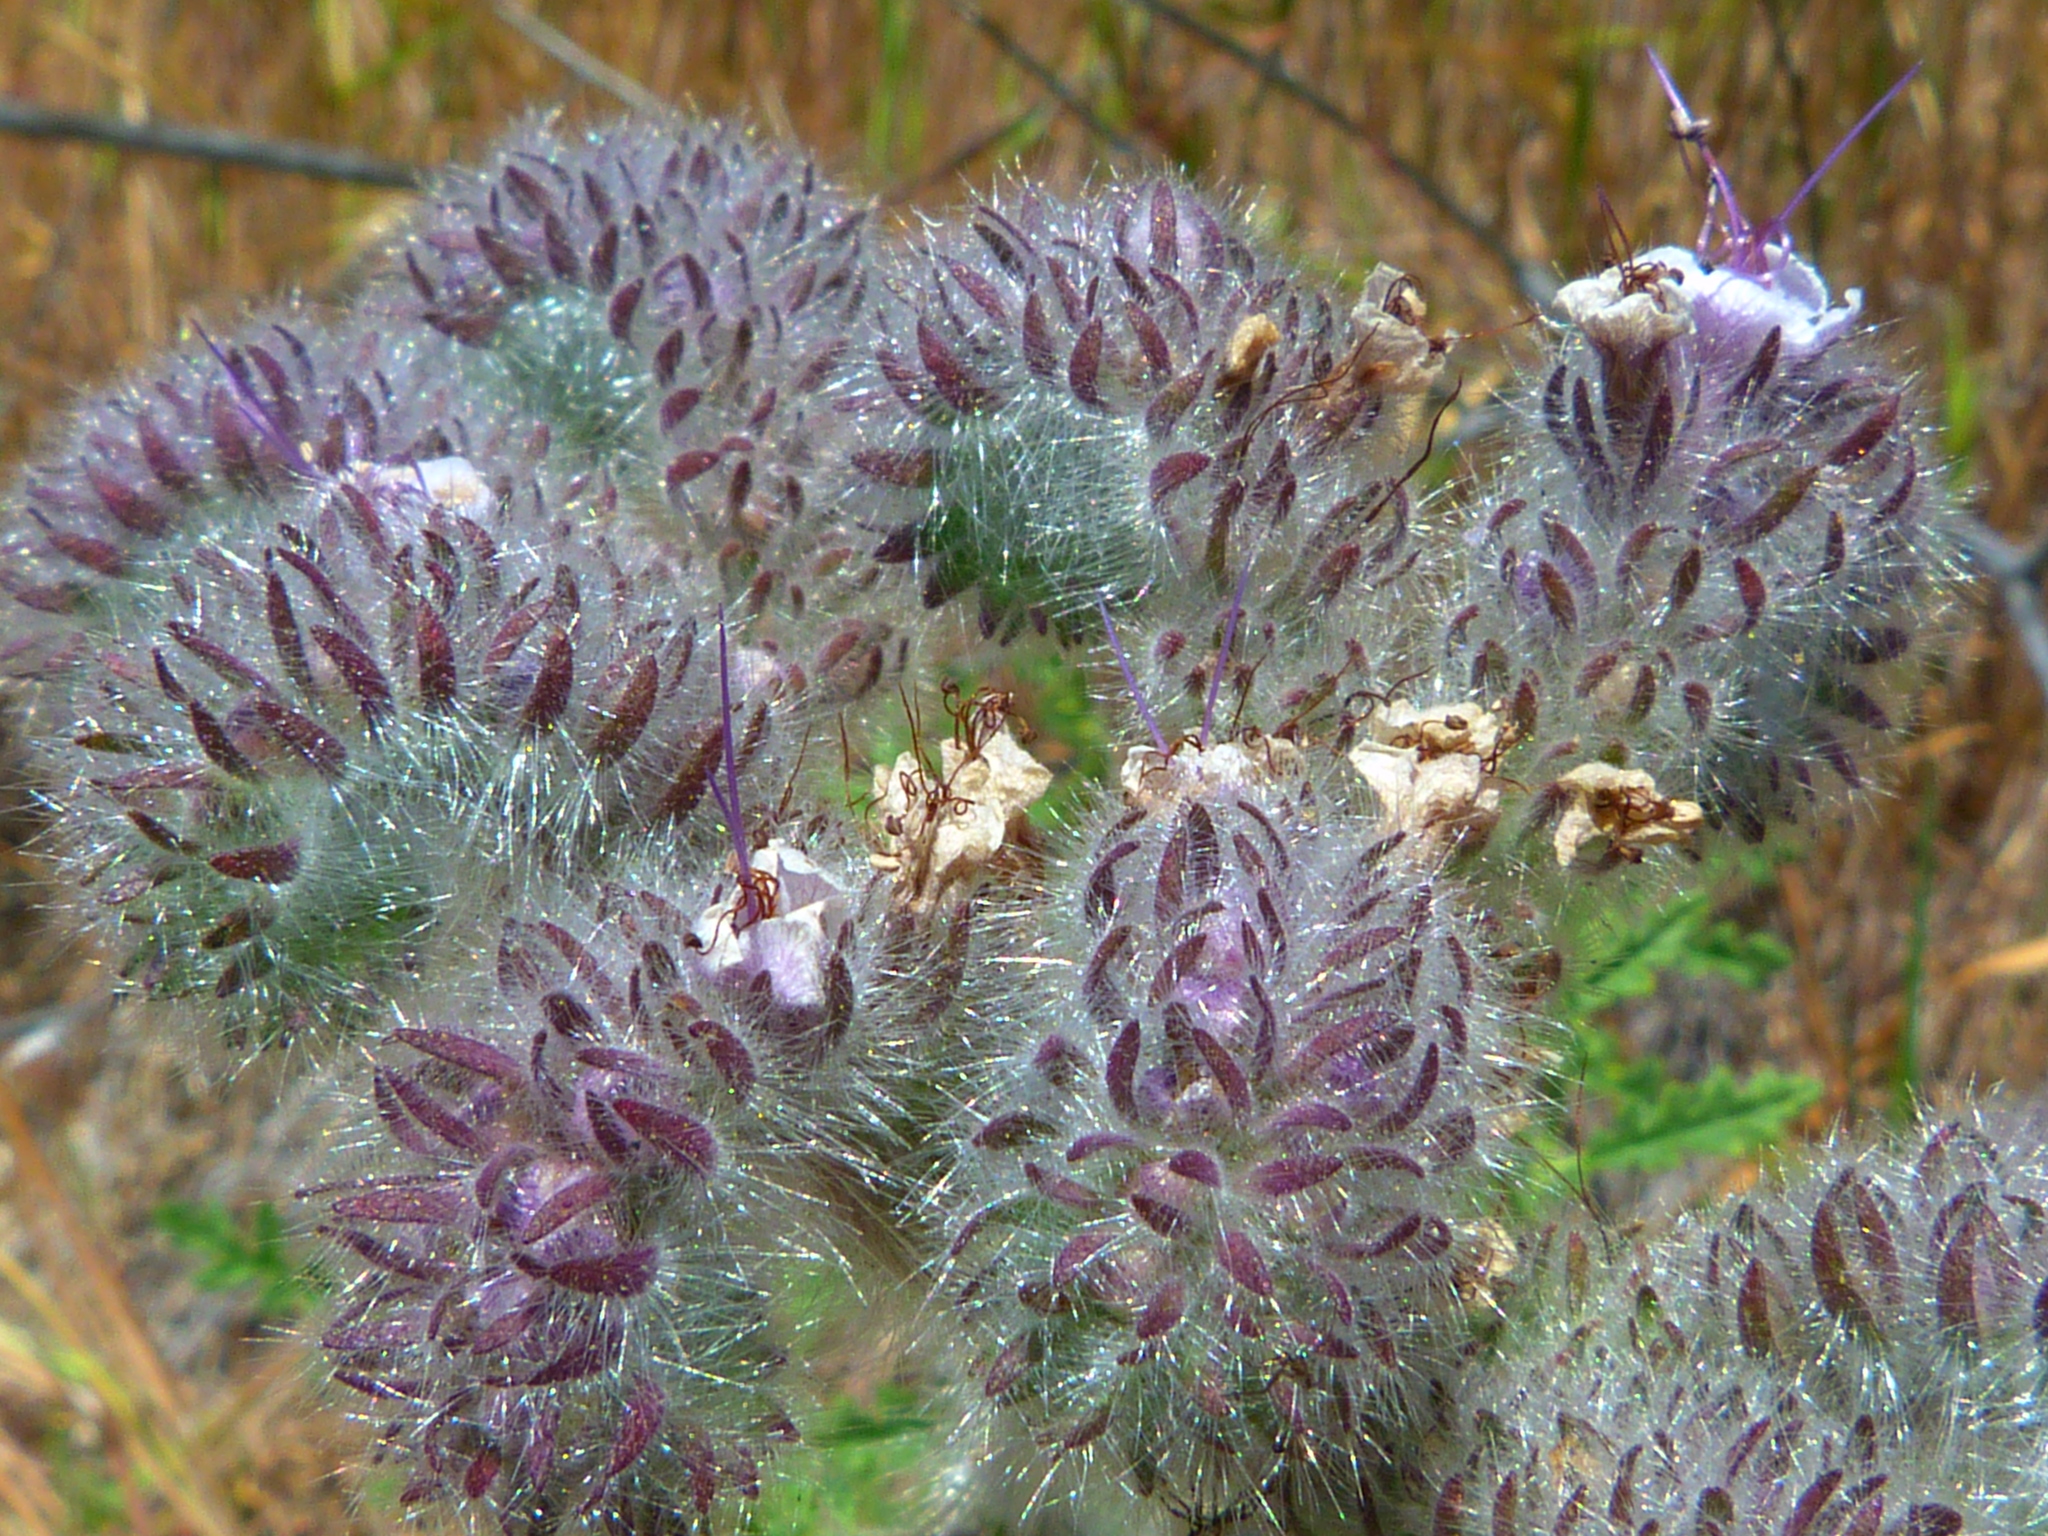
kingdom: Plantae
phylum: Tracheophyta
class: Magnoliopsida
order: Boraginales
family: Hydrophyllaceae
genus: Phacelia
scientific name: Phacelia hubbyi
